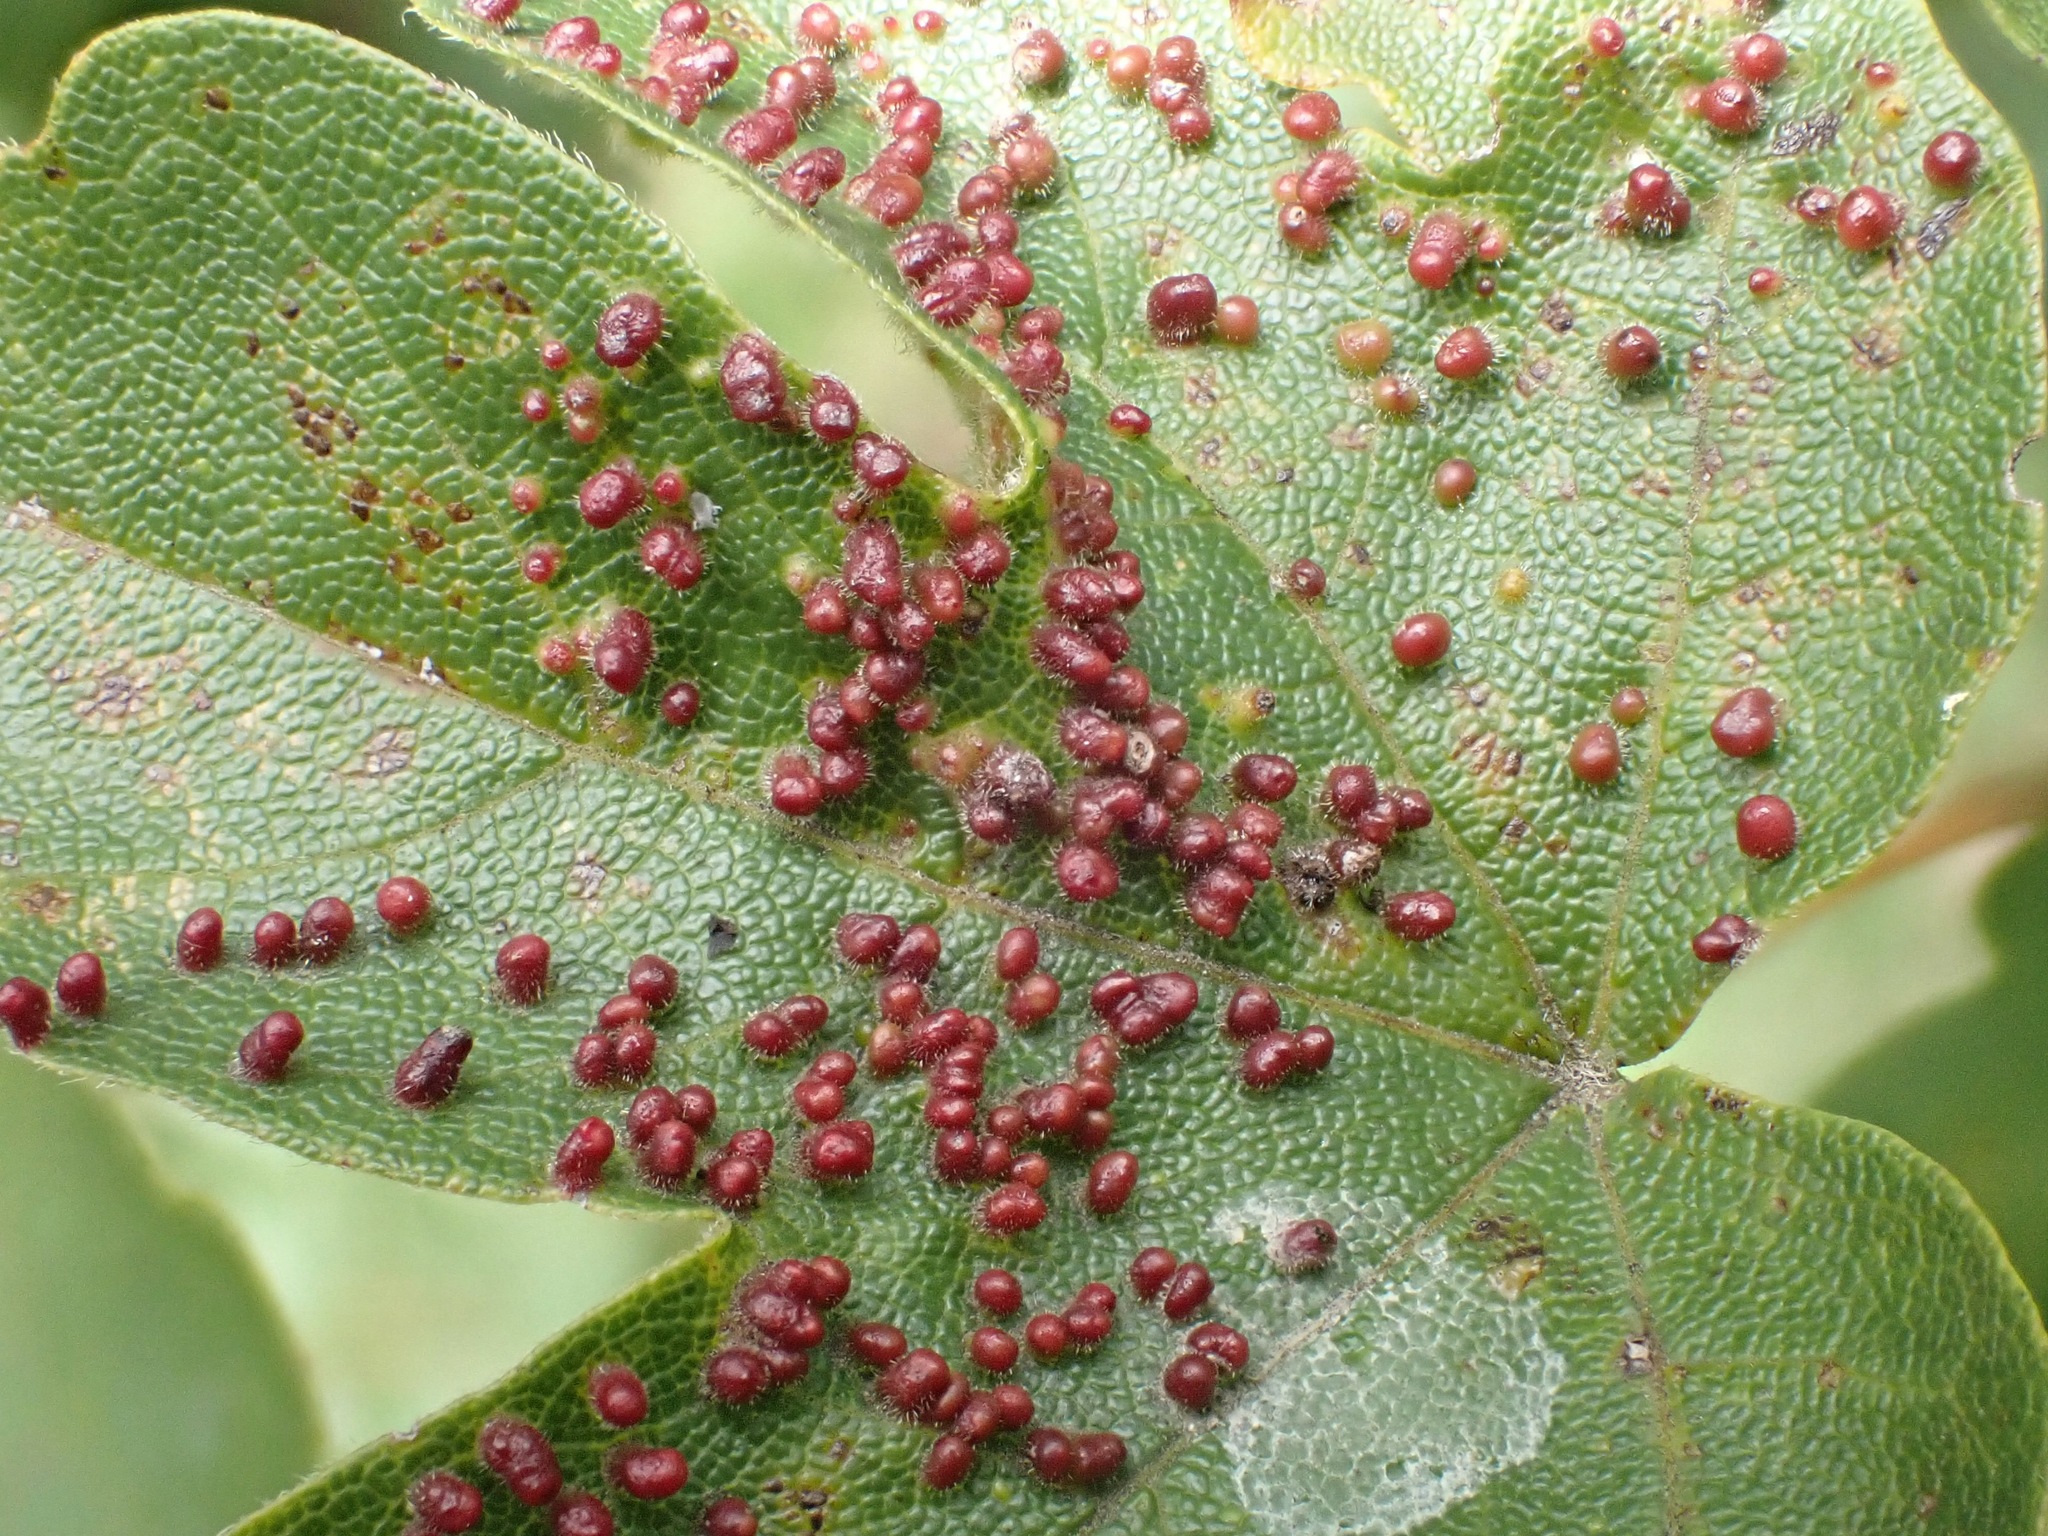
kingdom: Animalia
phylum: Arthropoda
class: Arachnida
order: Trombidiformes
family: Eriophyidae
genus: Aceria
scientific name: Aceria myriadeum
